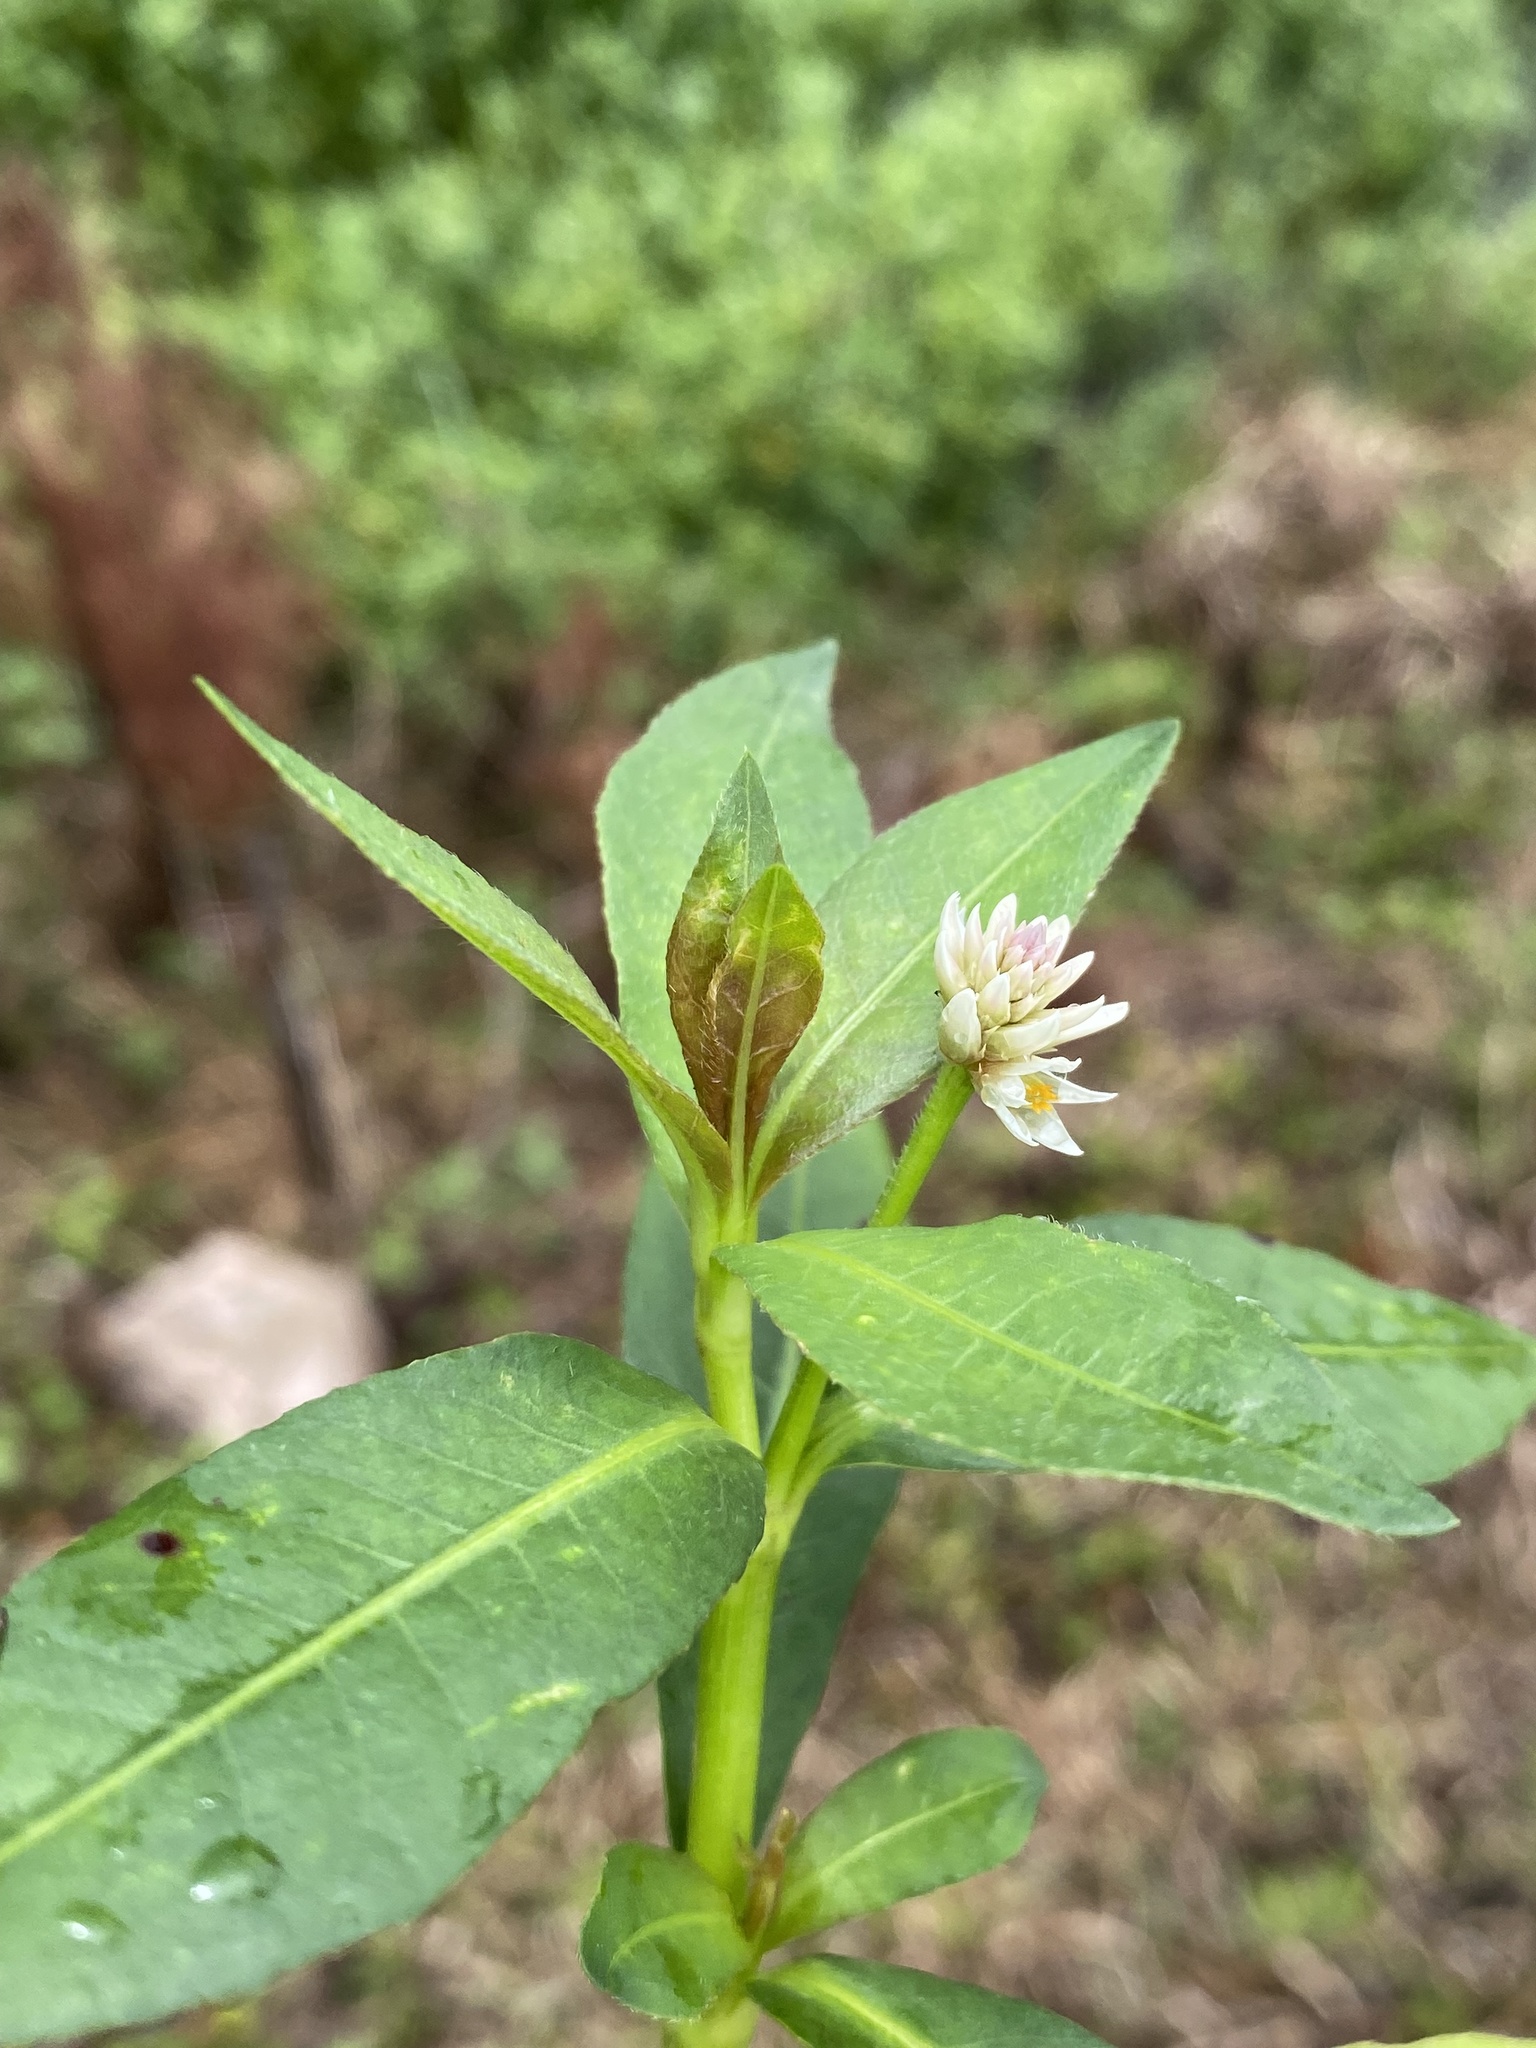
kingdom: Plantae
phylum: Tracheophyta
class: Magnoliopsida
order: Caryophyllales
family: Amaranthaceae
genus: Alternanthera
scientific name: Alternanthera philoxeroides
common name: Alligatorweed
